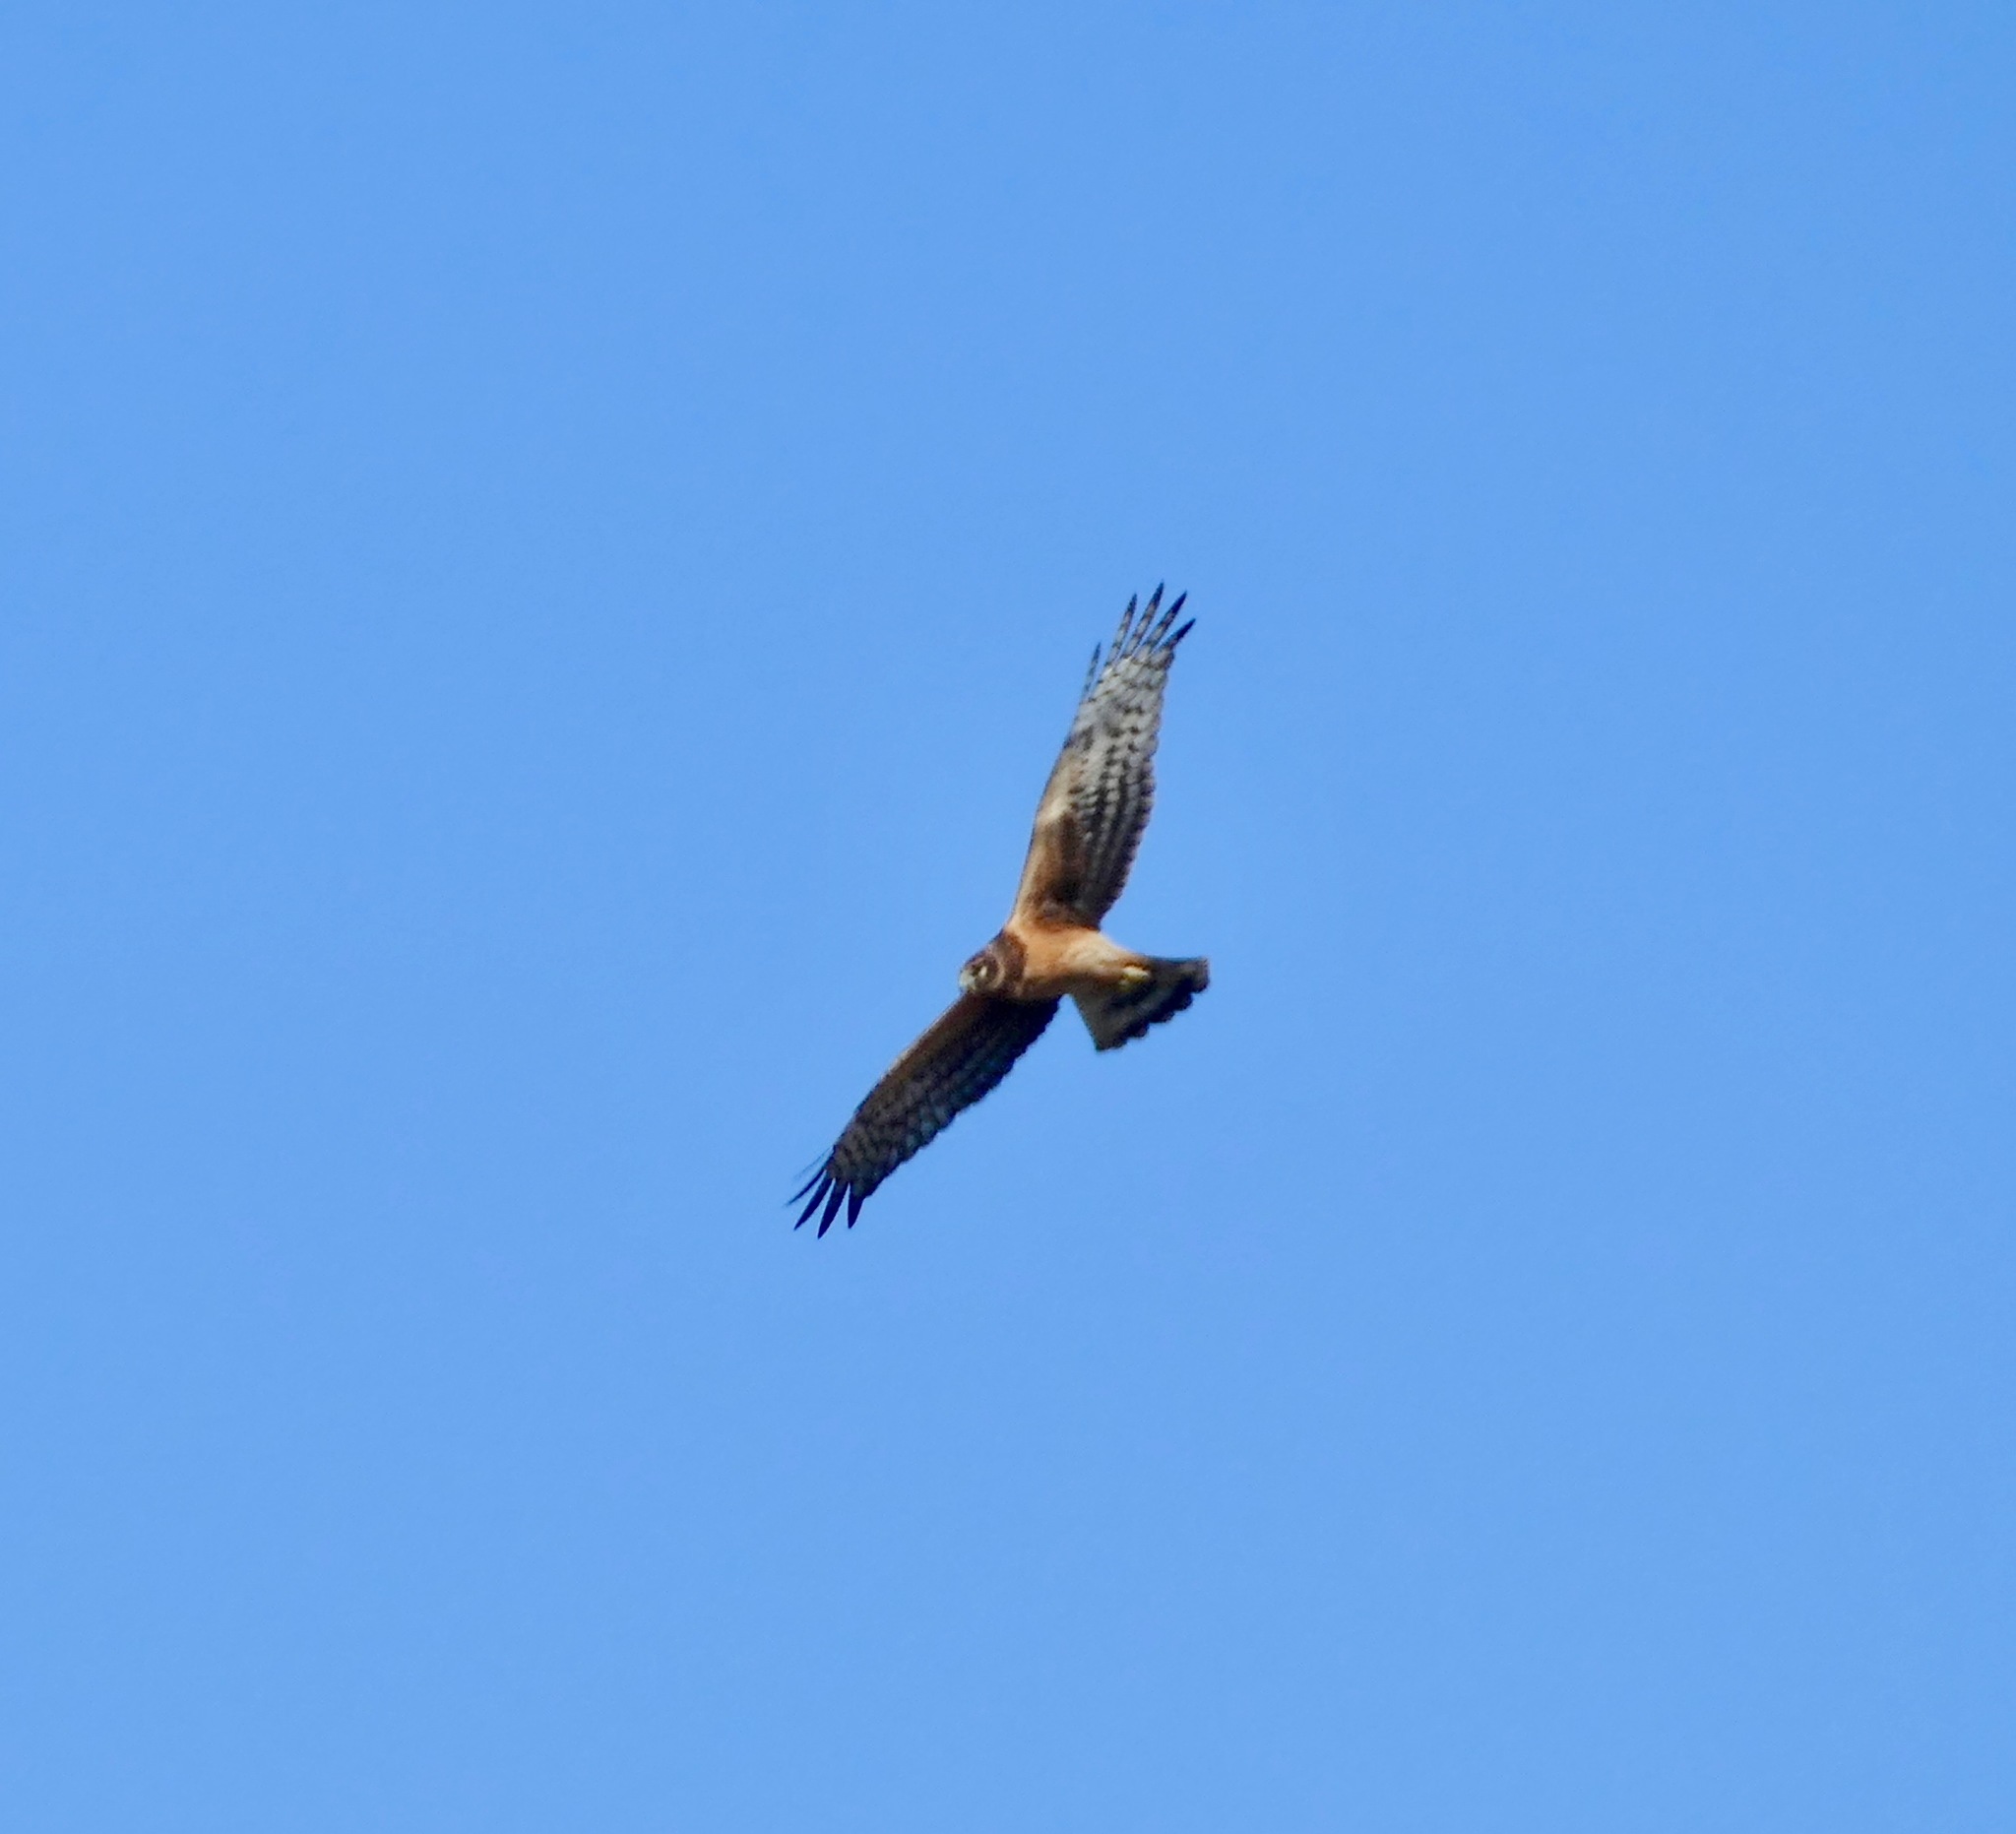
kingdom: Animalia
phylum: Chordata
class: Aves
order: Accipitriformes
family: Accipitridae
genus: Circus
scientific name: Circus cyaneus
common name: Hen harrier
